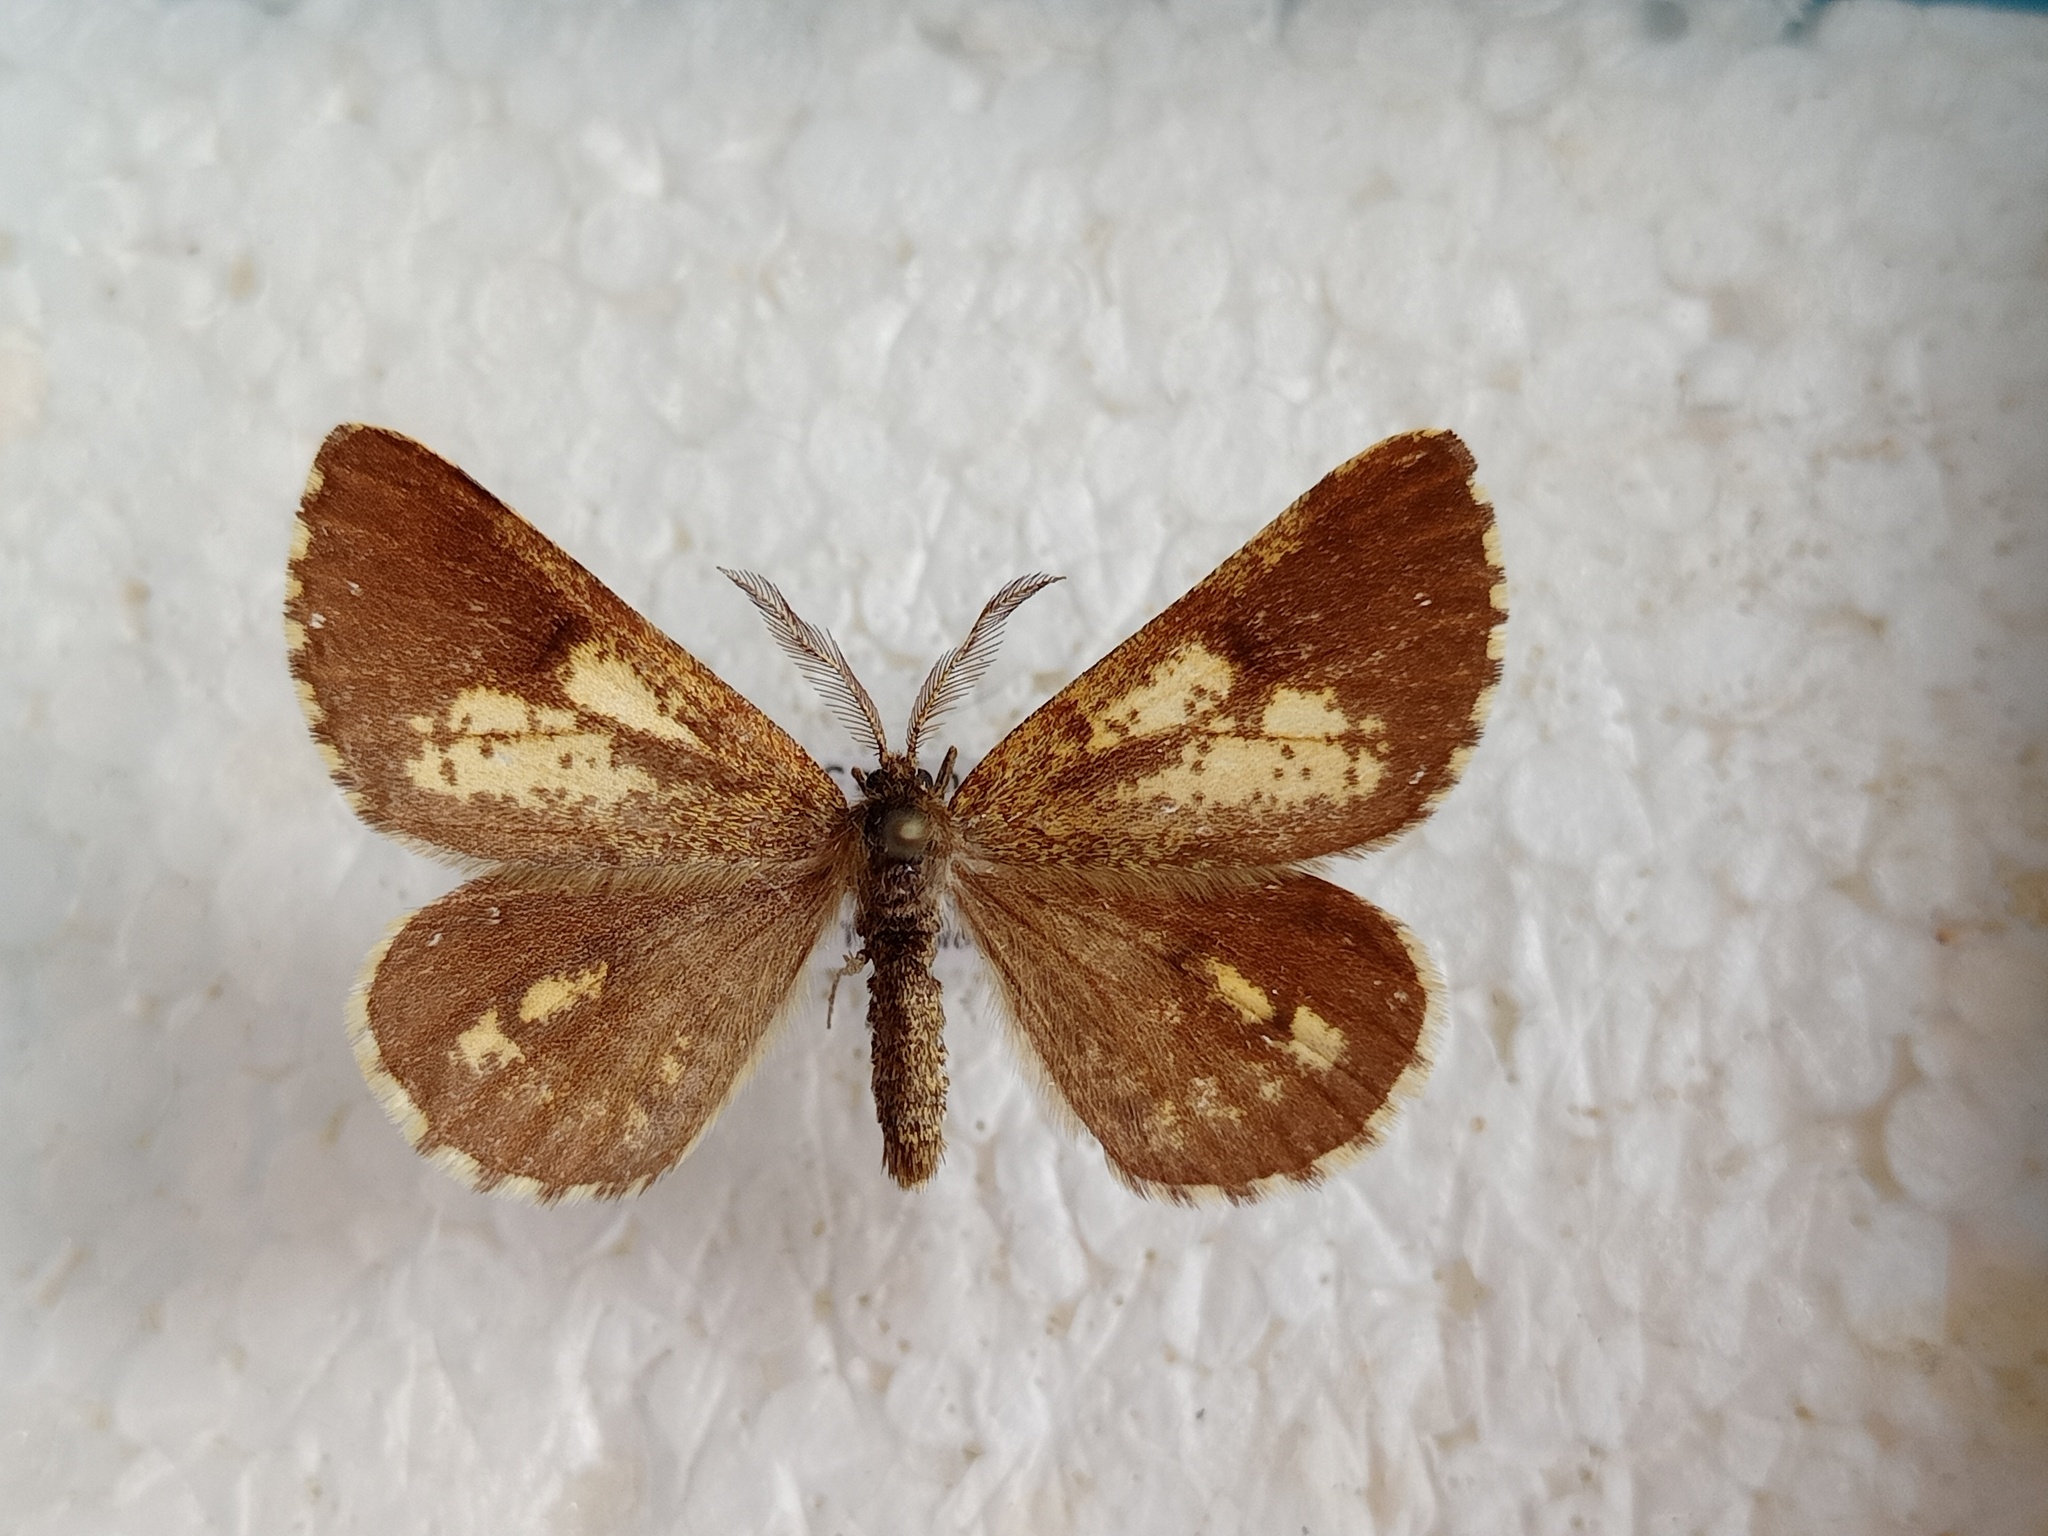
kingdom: Animalia
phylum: Arthropoda
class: Insecta
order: Lepidoptera
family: Geometridae
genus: Bupalus
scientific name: Bupalus piniaria
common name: Bordered white
